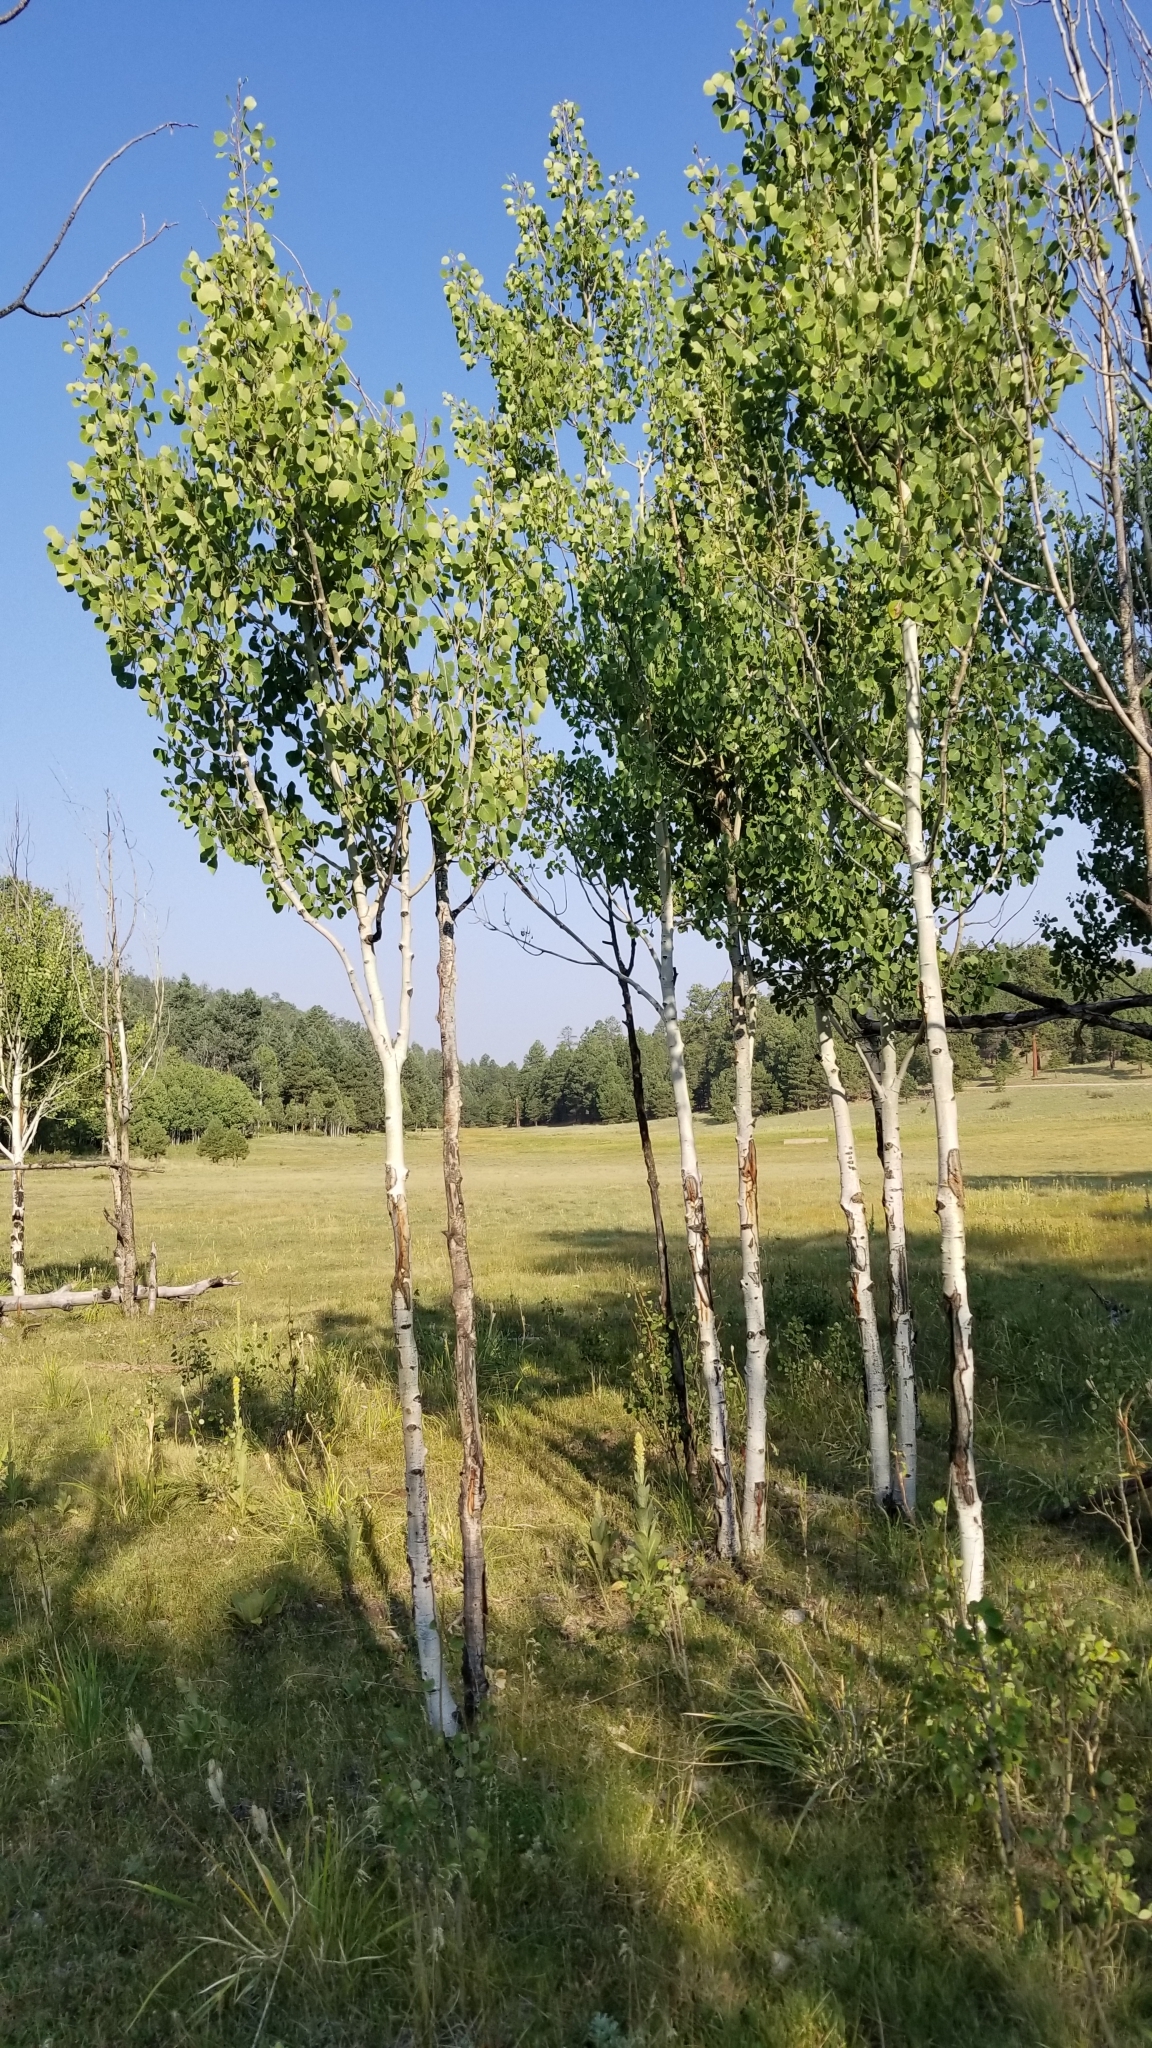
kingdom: Plantae
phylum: Tracheophyta
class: Magnoliopsida
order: Malpighiales
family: Salicaceae
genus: Populus
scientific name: Populus tremuloides
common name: Quaking aspen
